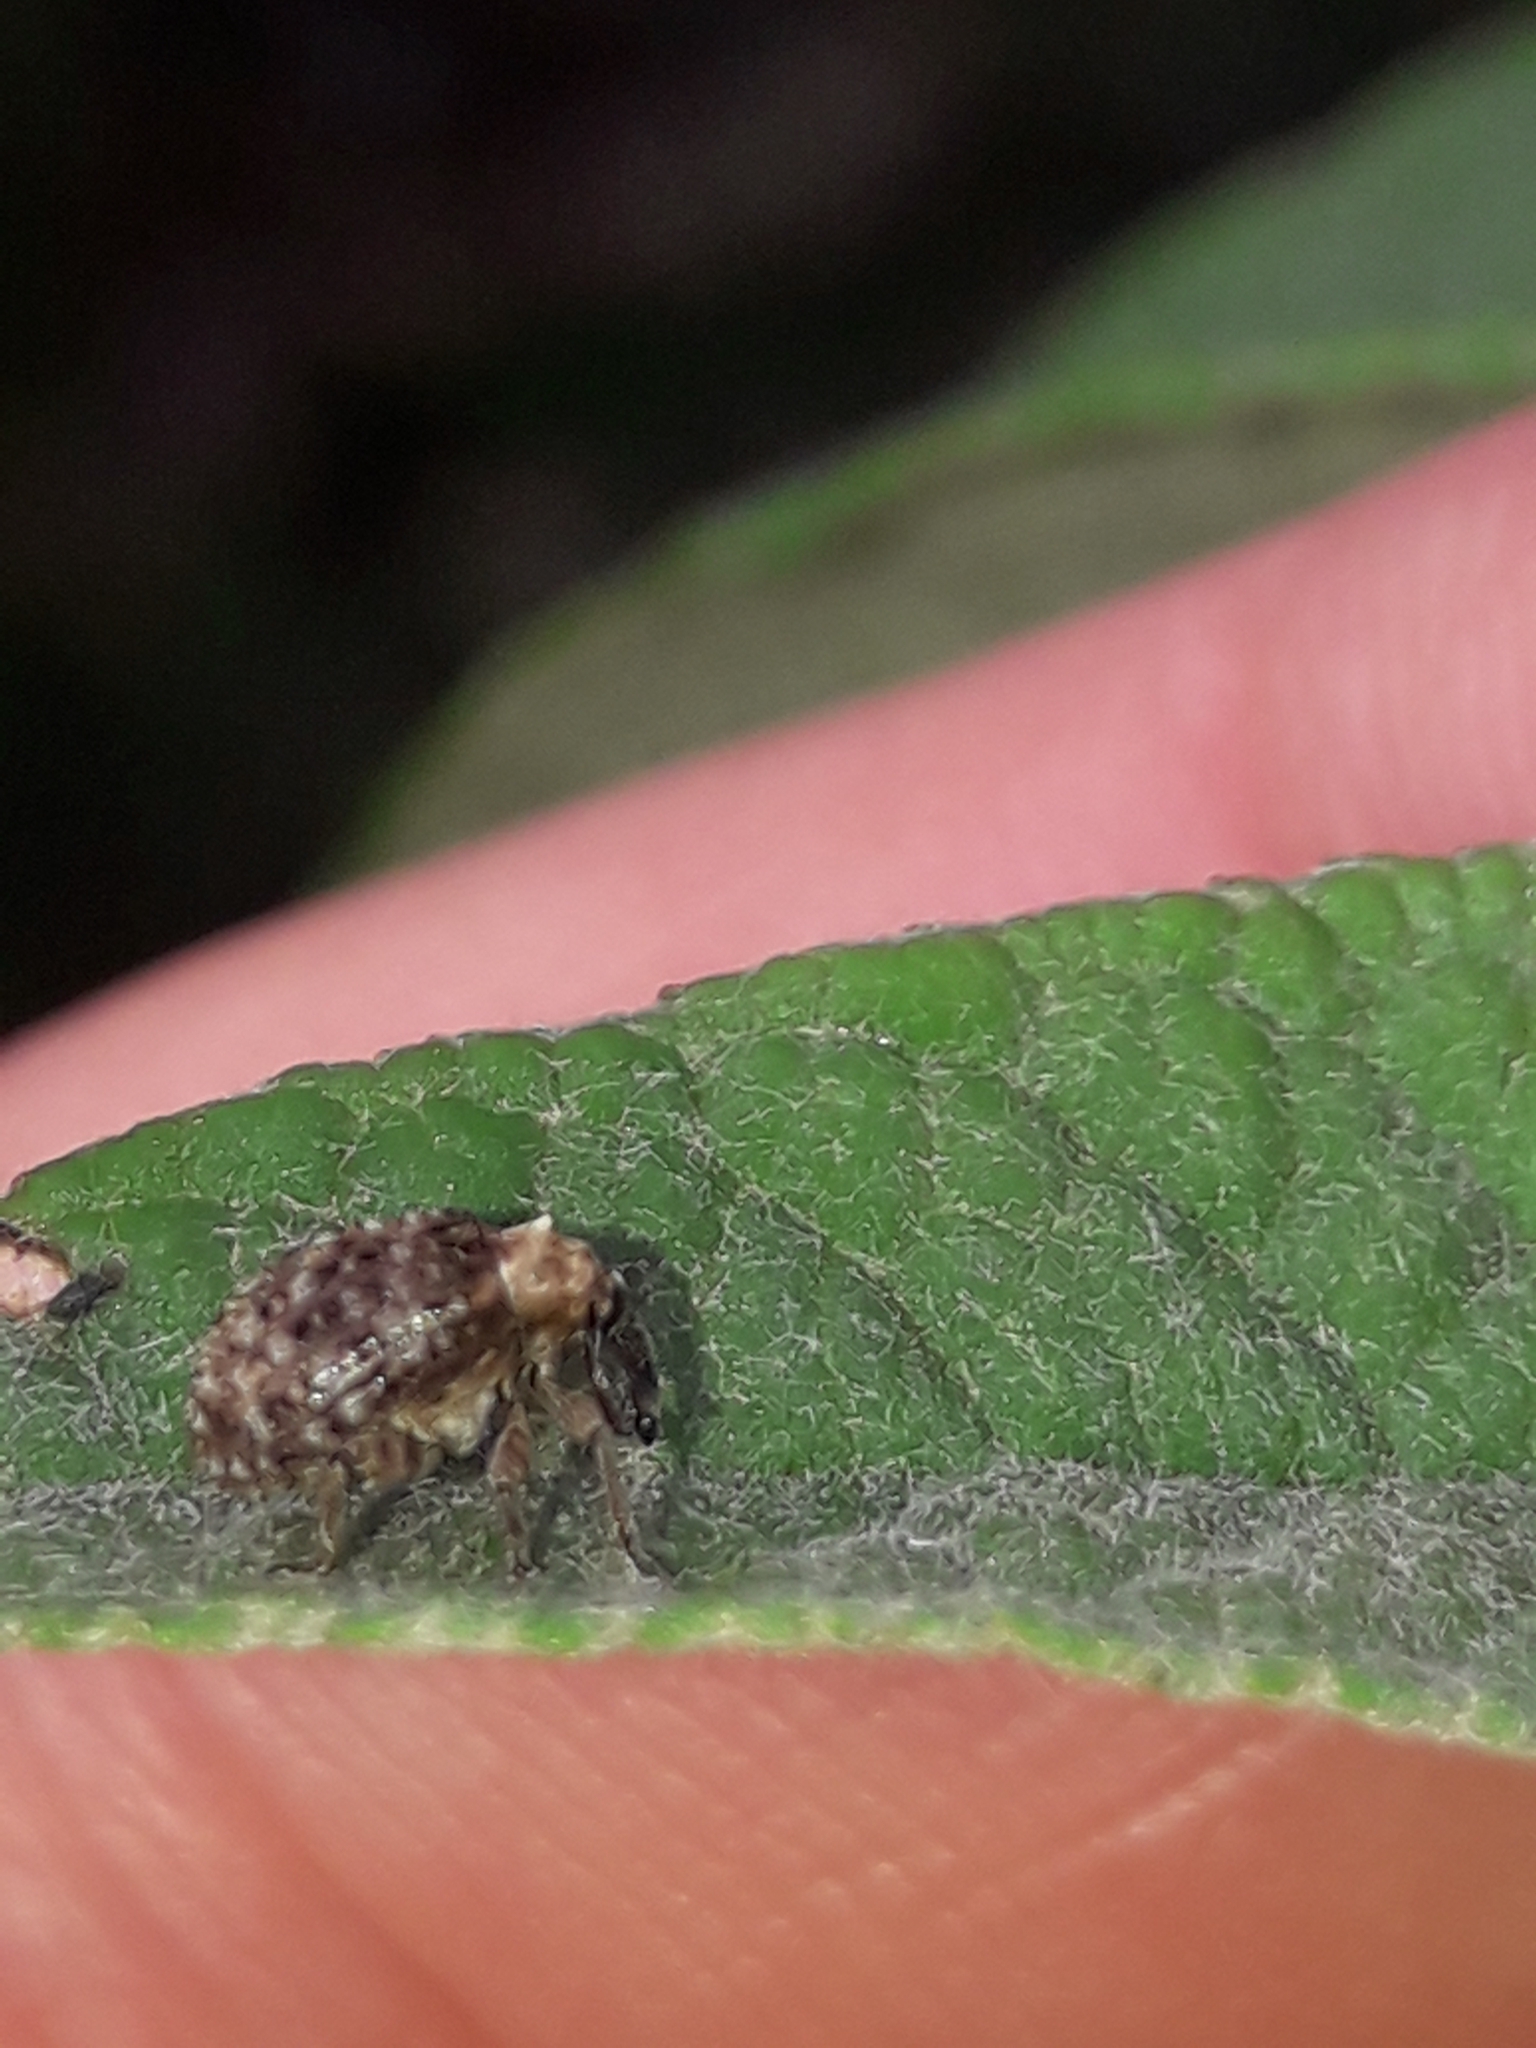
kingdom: Animalia
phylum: Arthropoda
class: Insecta
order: Coleoptera
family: Curculionidae
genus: Cleopus
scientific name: Cleopus japonicus
